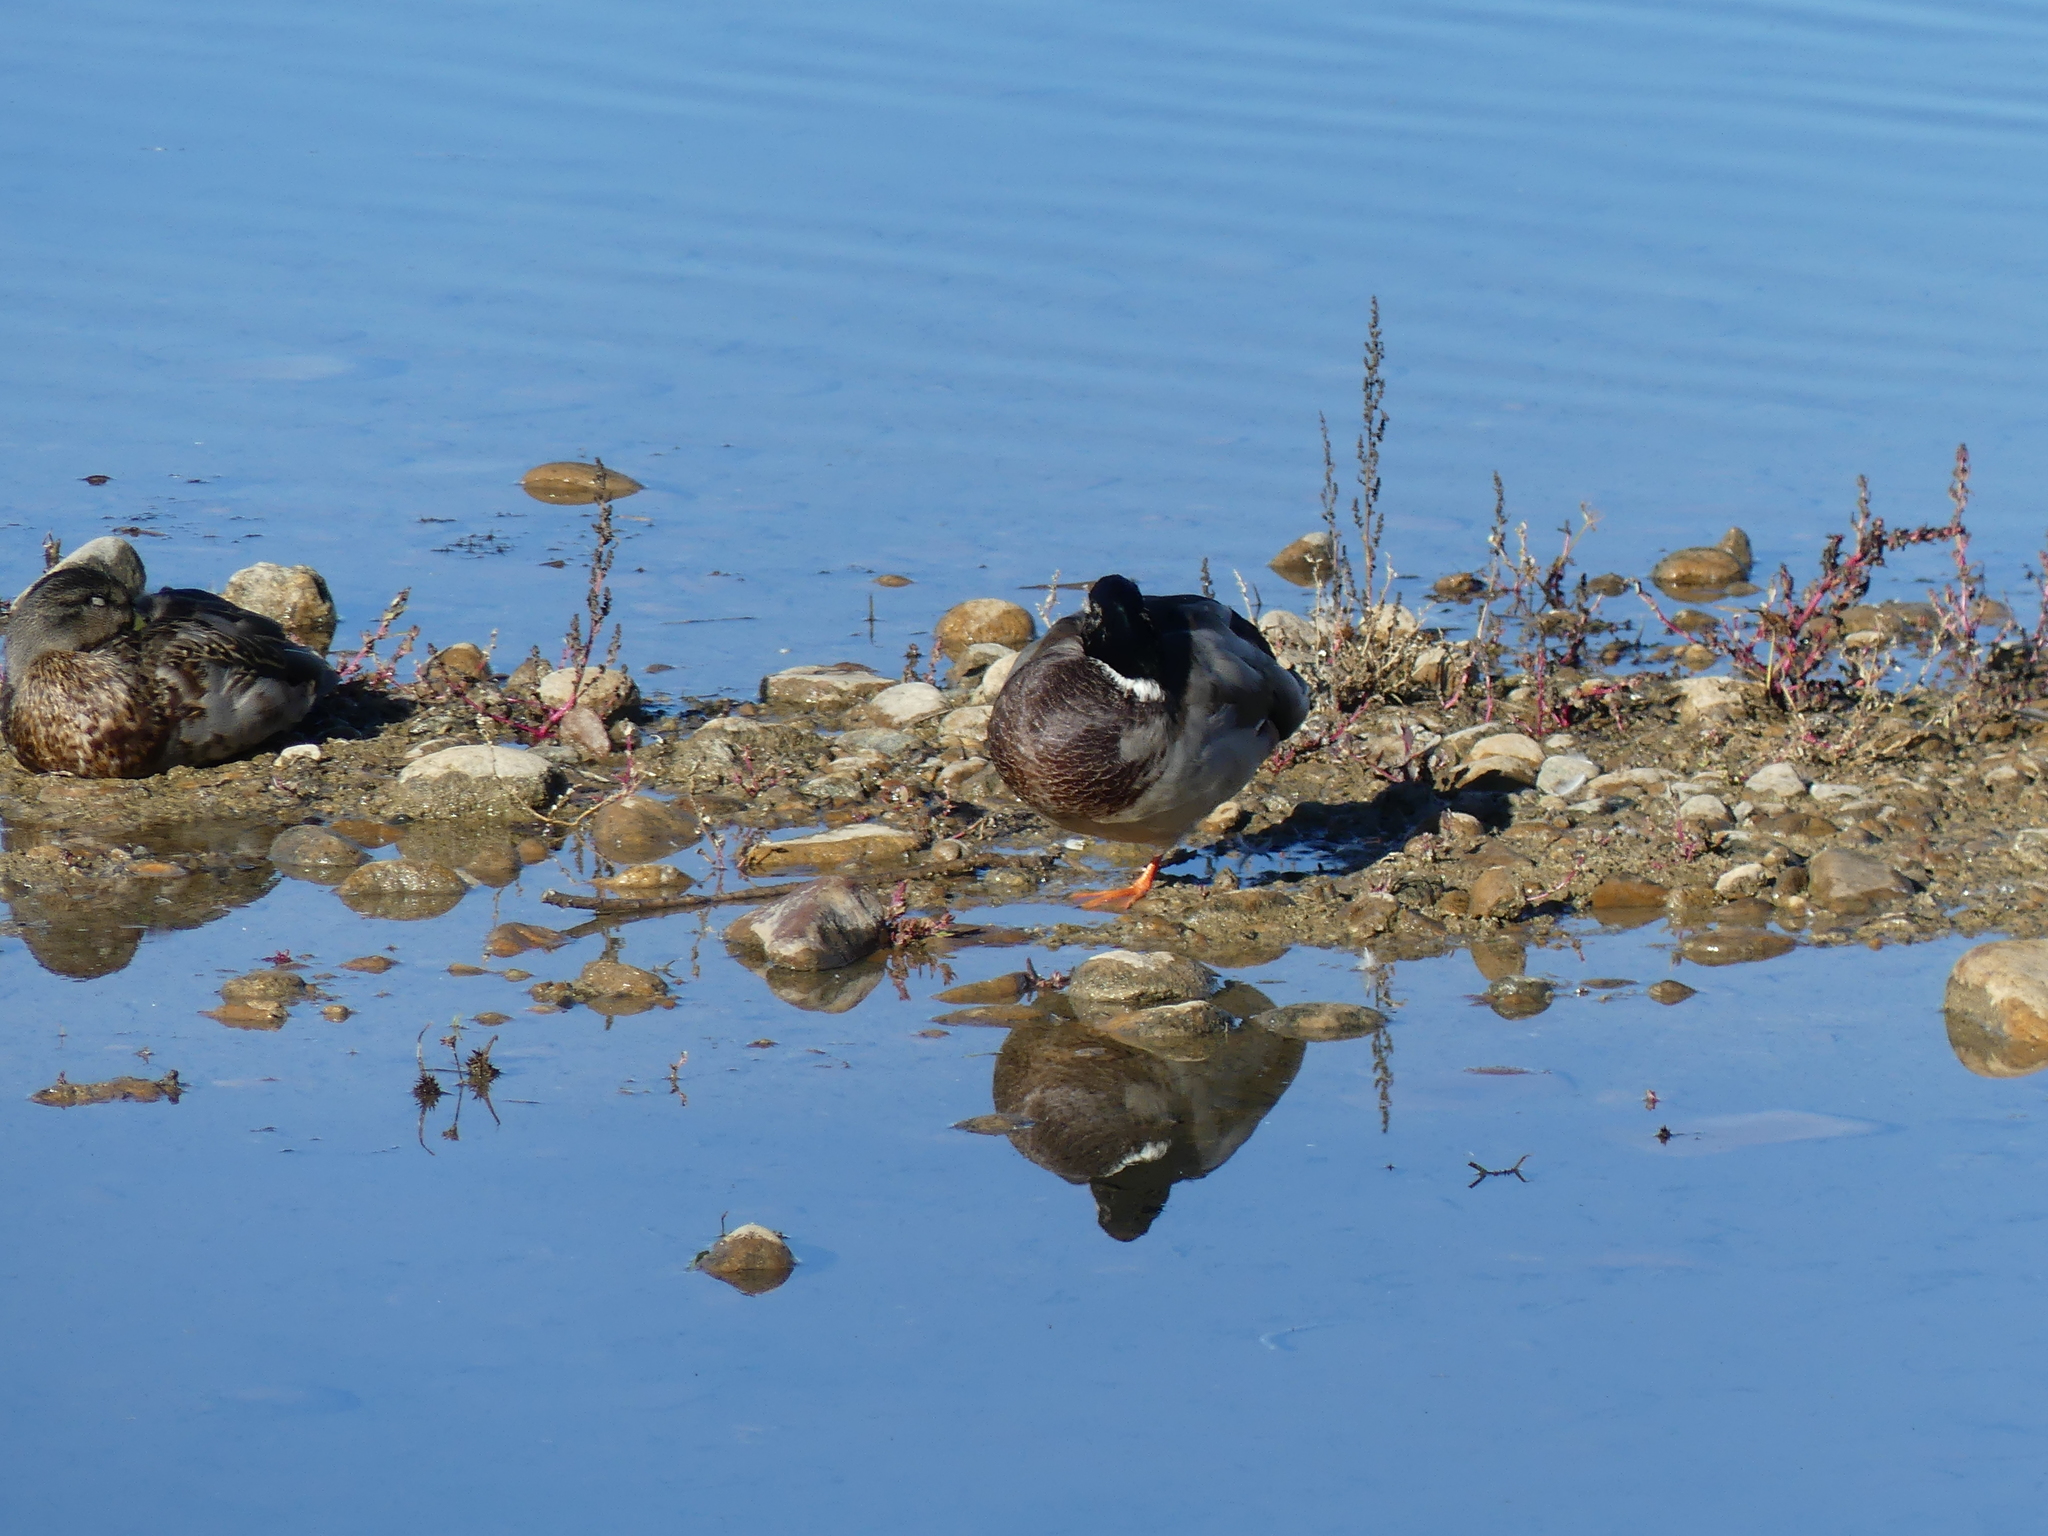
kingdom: Animalia
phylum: Chordata
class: Aves
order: Anseriformes
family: Anatidae
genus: Anas
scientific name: Anas platyrhynchos
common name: Mallard
